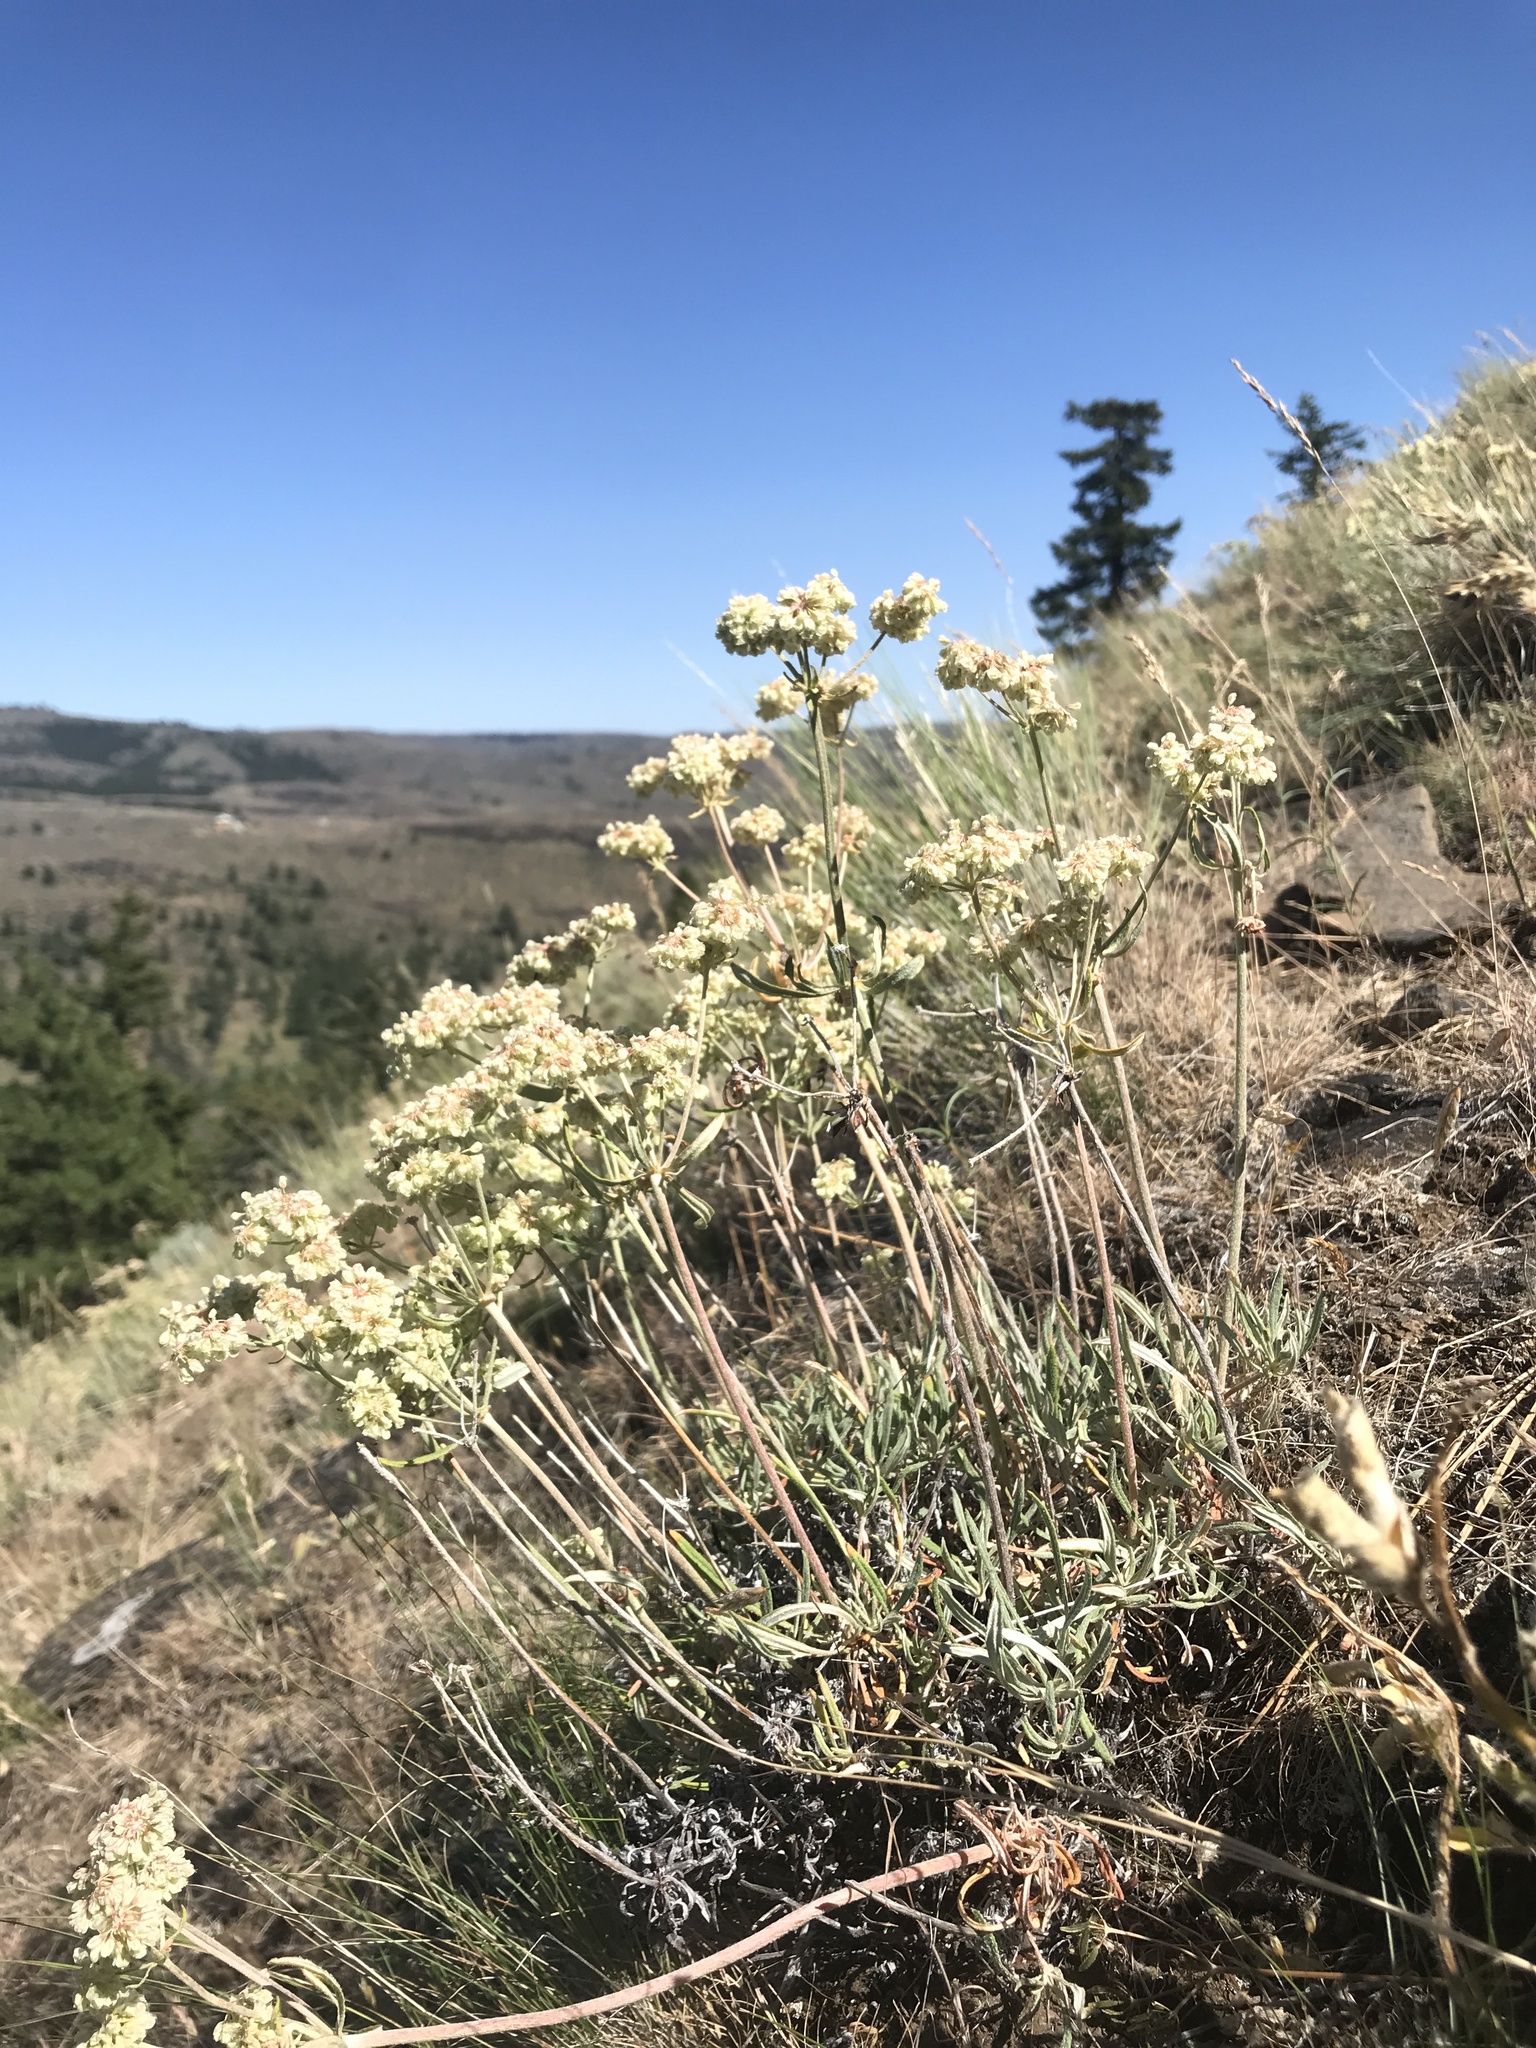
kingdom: Plantae
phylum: Tracheophyta
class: Magnoliopsida
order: Caryophyllales
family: Polygonaceae
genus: Eriogonum
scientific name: Eriogonum heracleoides
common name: Wyeth's buckwheat
